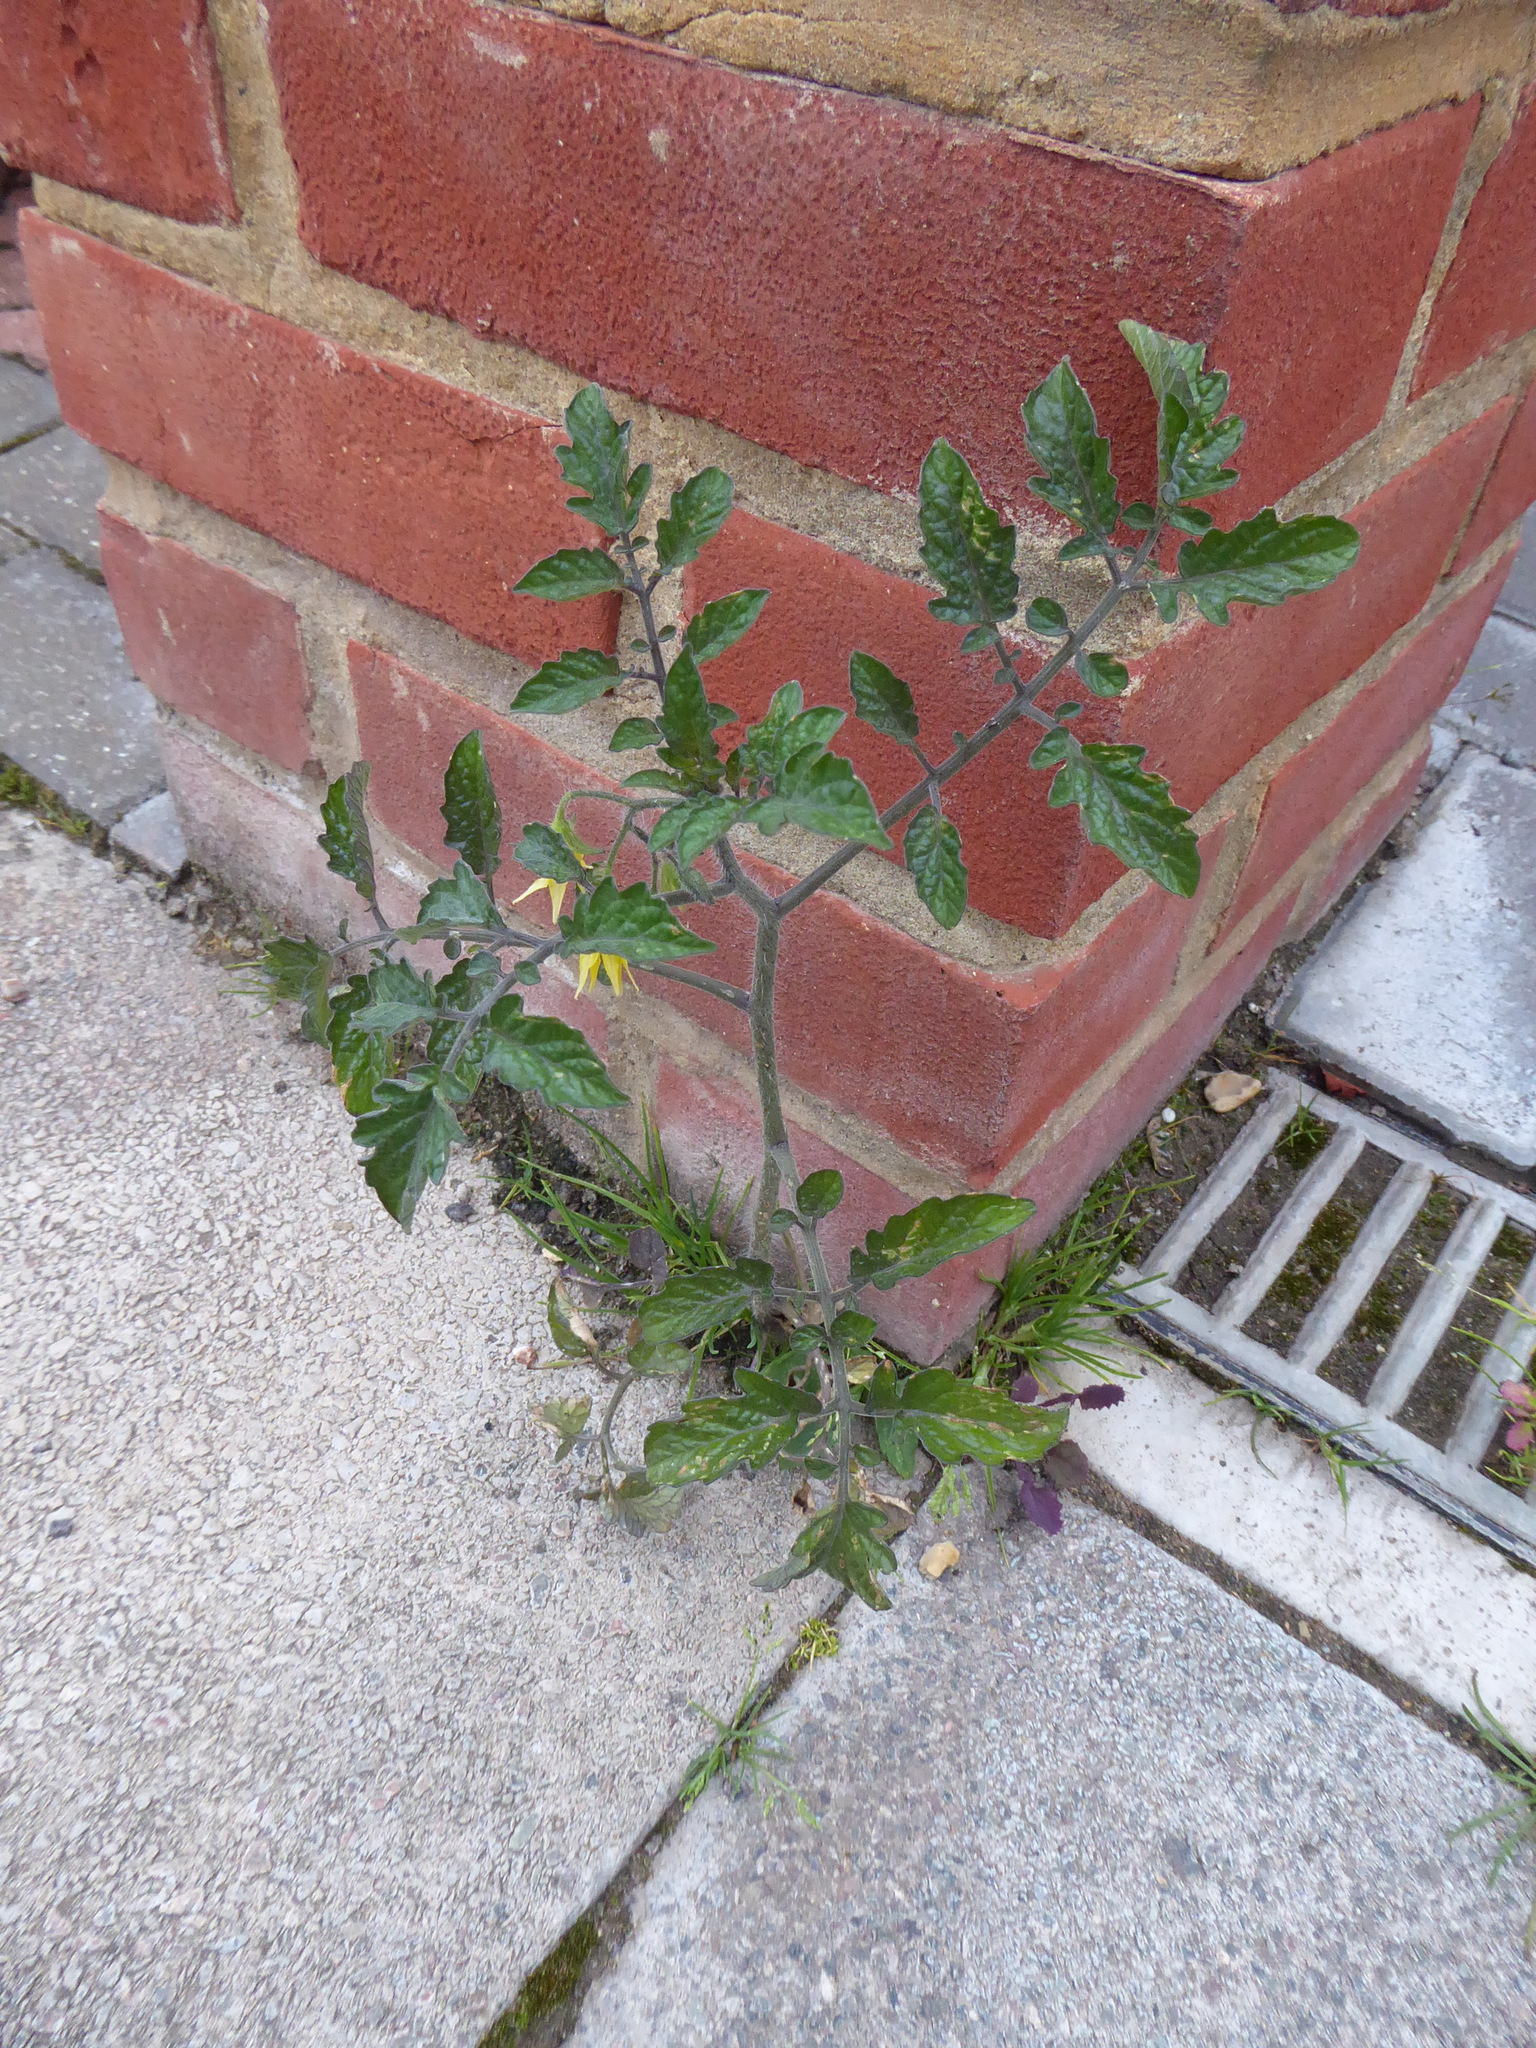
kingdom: Plantae
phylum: Tracheophyta
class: Magnoliopsida
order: Solanales
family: Solanaceae
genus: Solanum
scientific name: Solanum lycopersicum
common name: Garden tomato
